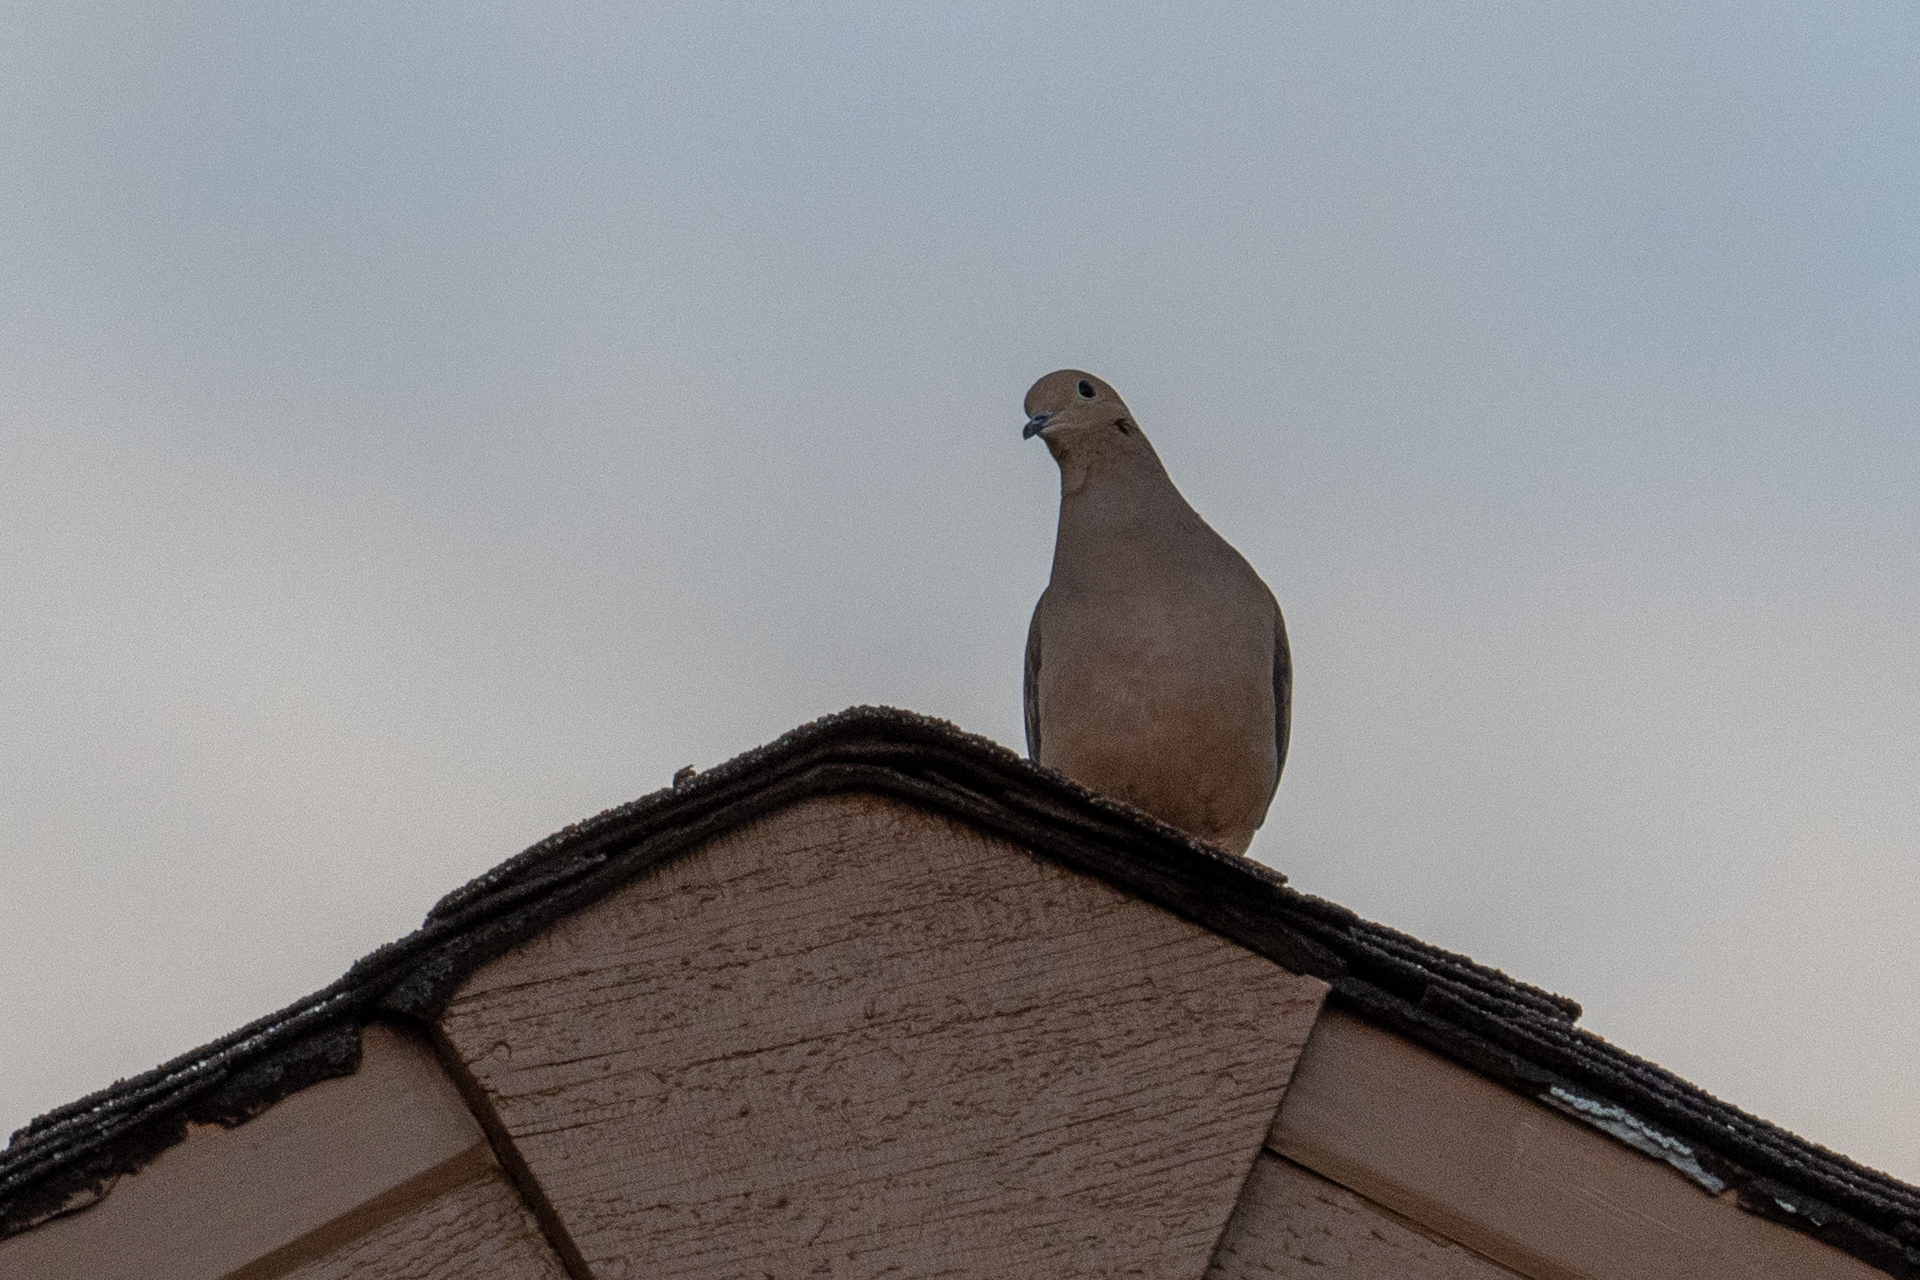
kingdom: Animalia
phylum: Chordata
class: Aves
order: Columbiformes
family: Columbidae
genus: Zenaida
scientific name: Zenaida macroura
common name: Mourning dove
